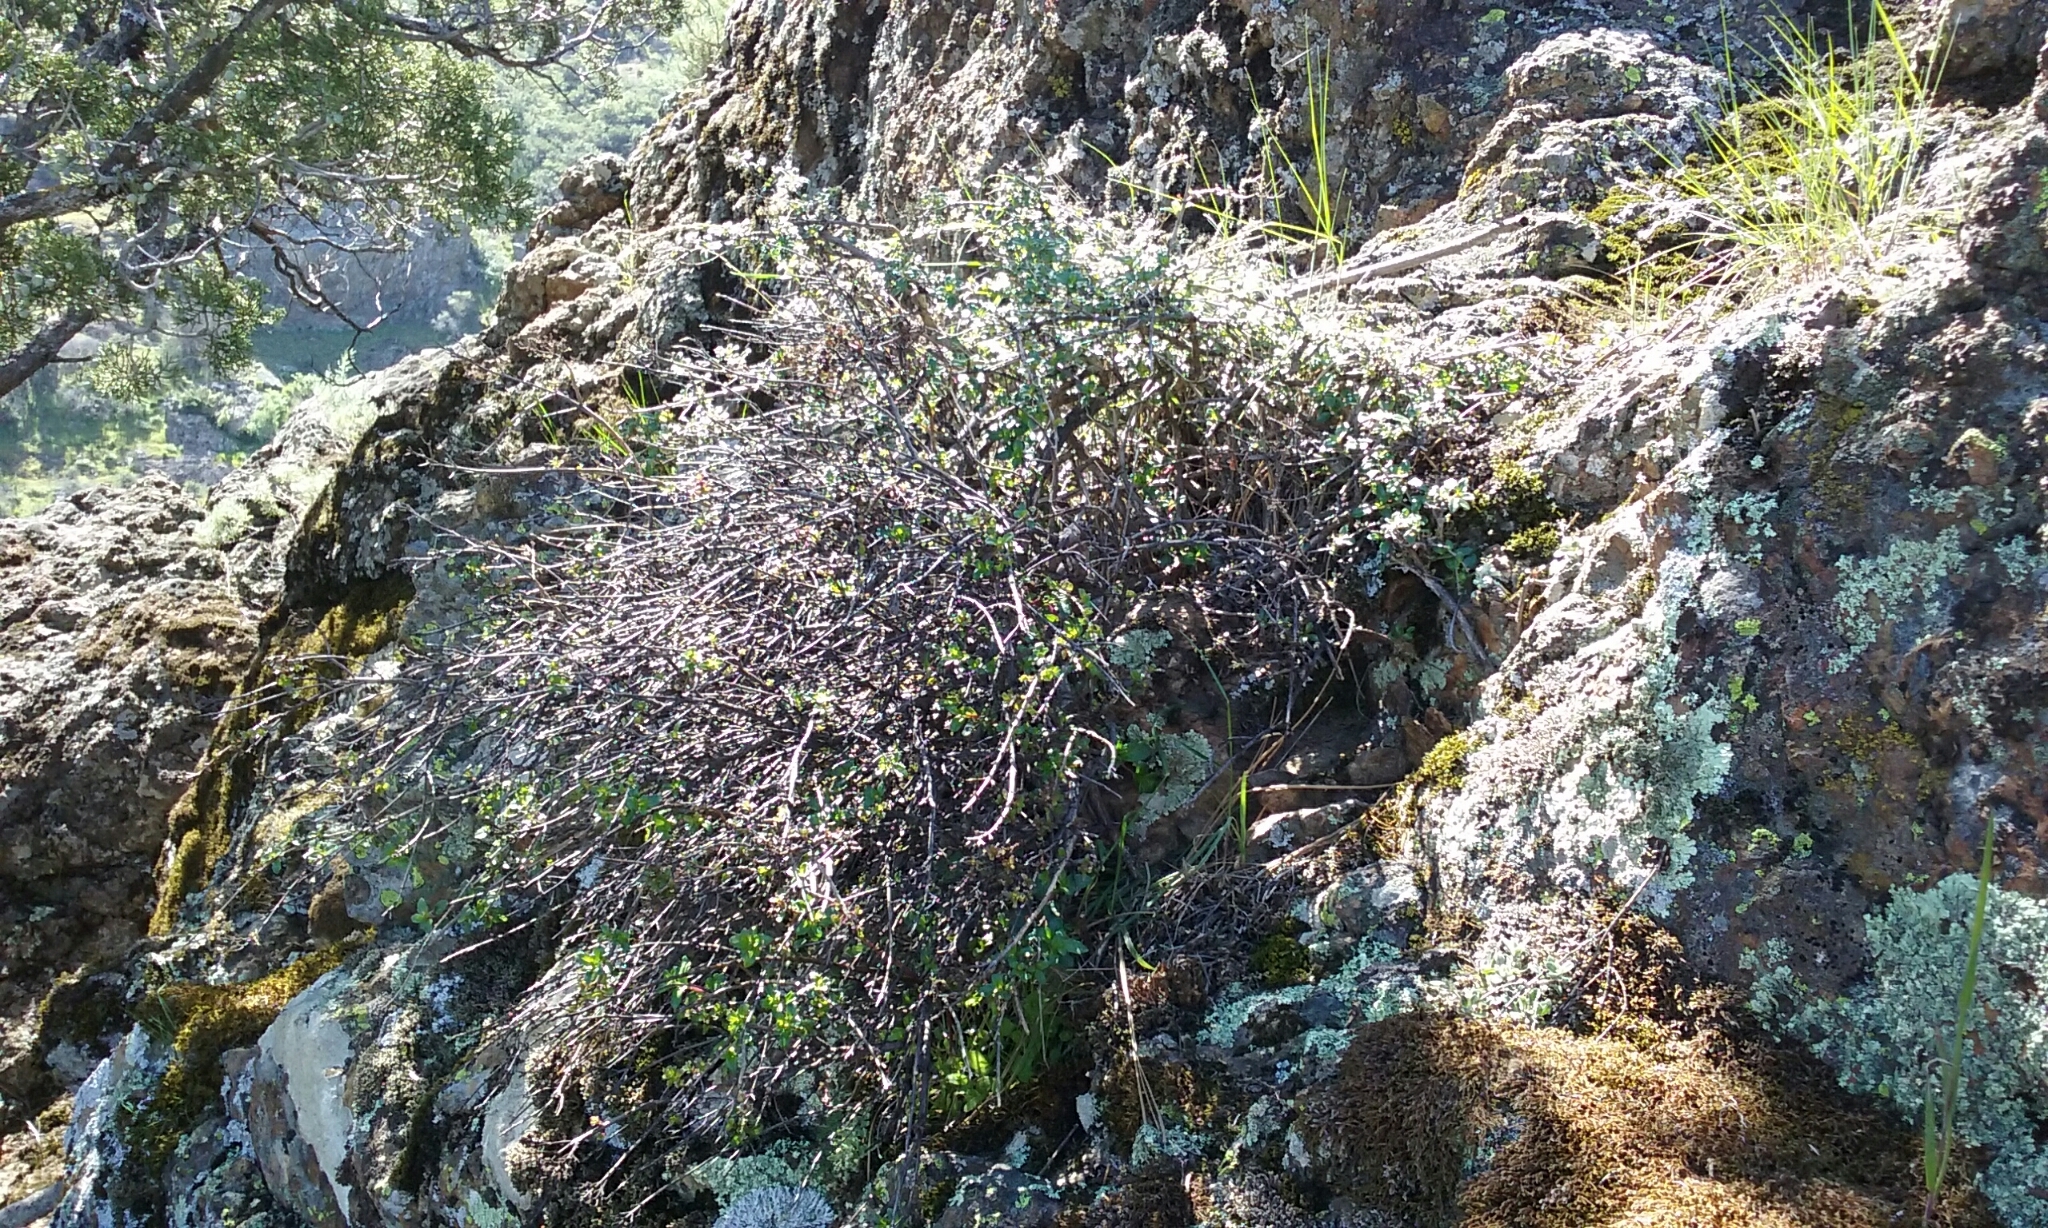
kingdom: Plantae
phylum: Tracheophyta
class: Magnoliopsida
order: Lamiales
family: Plantaginaceae
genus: Keckiella
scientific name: Keckiella corymbosa
